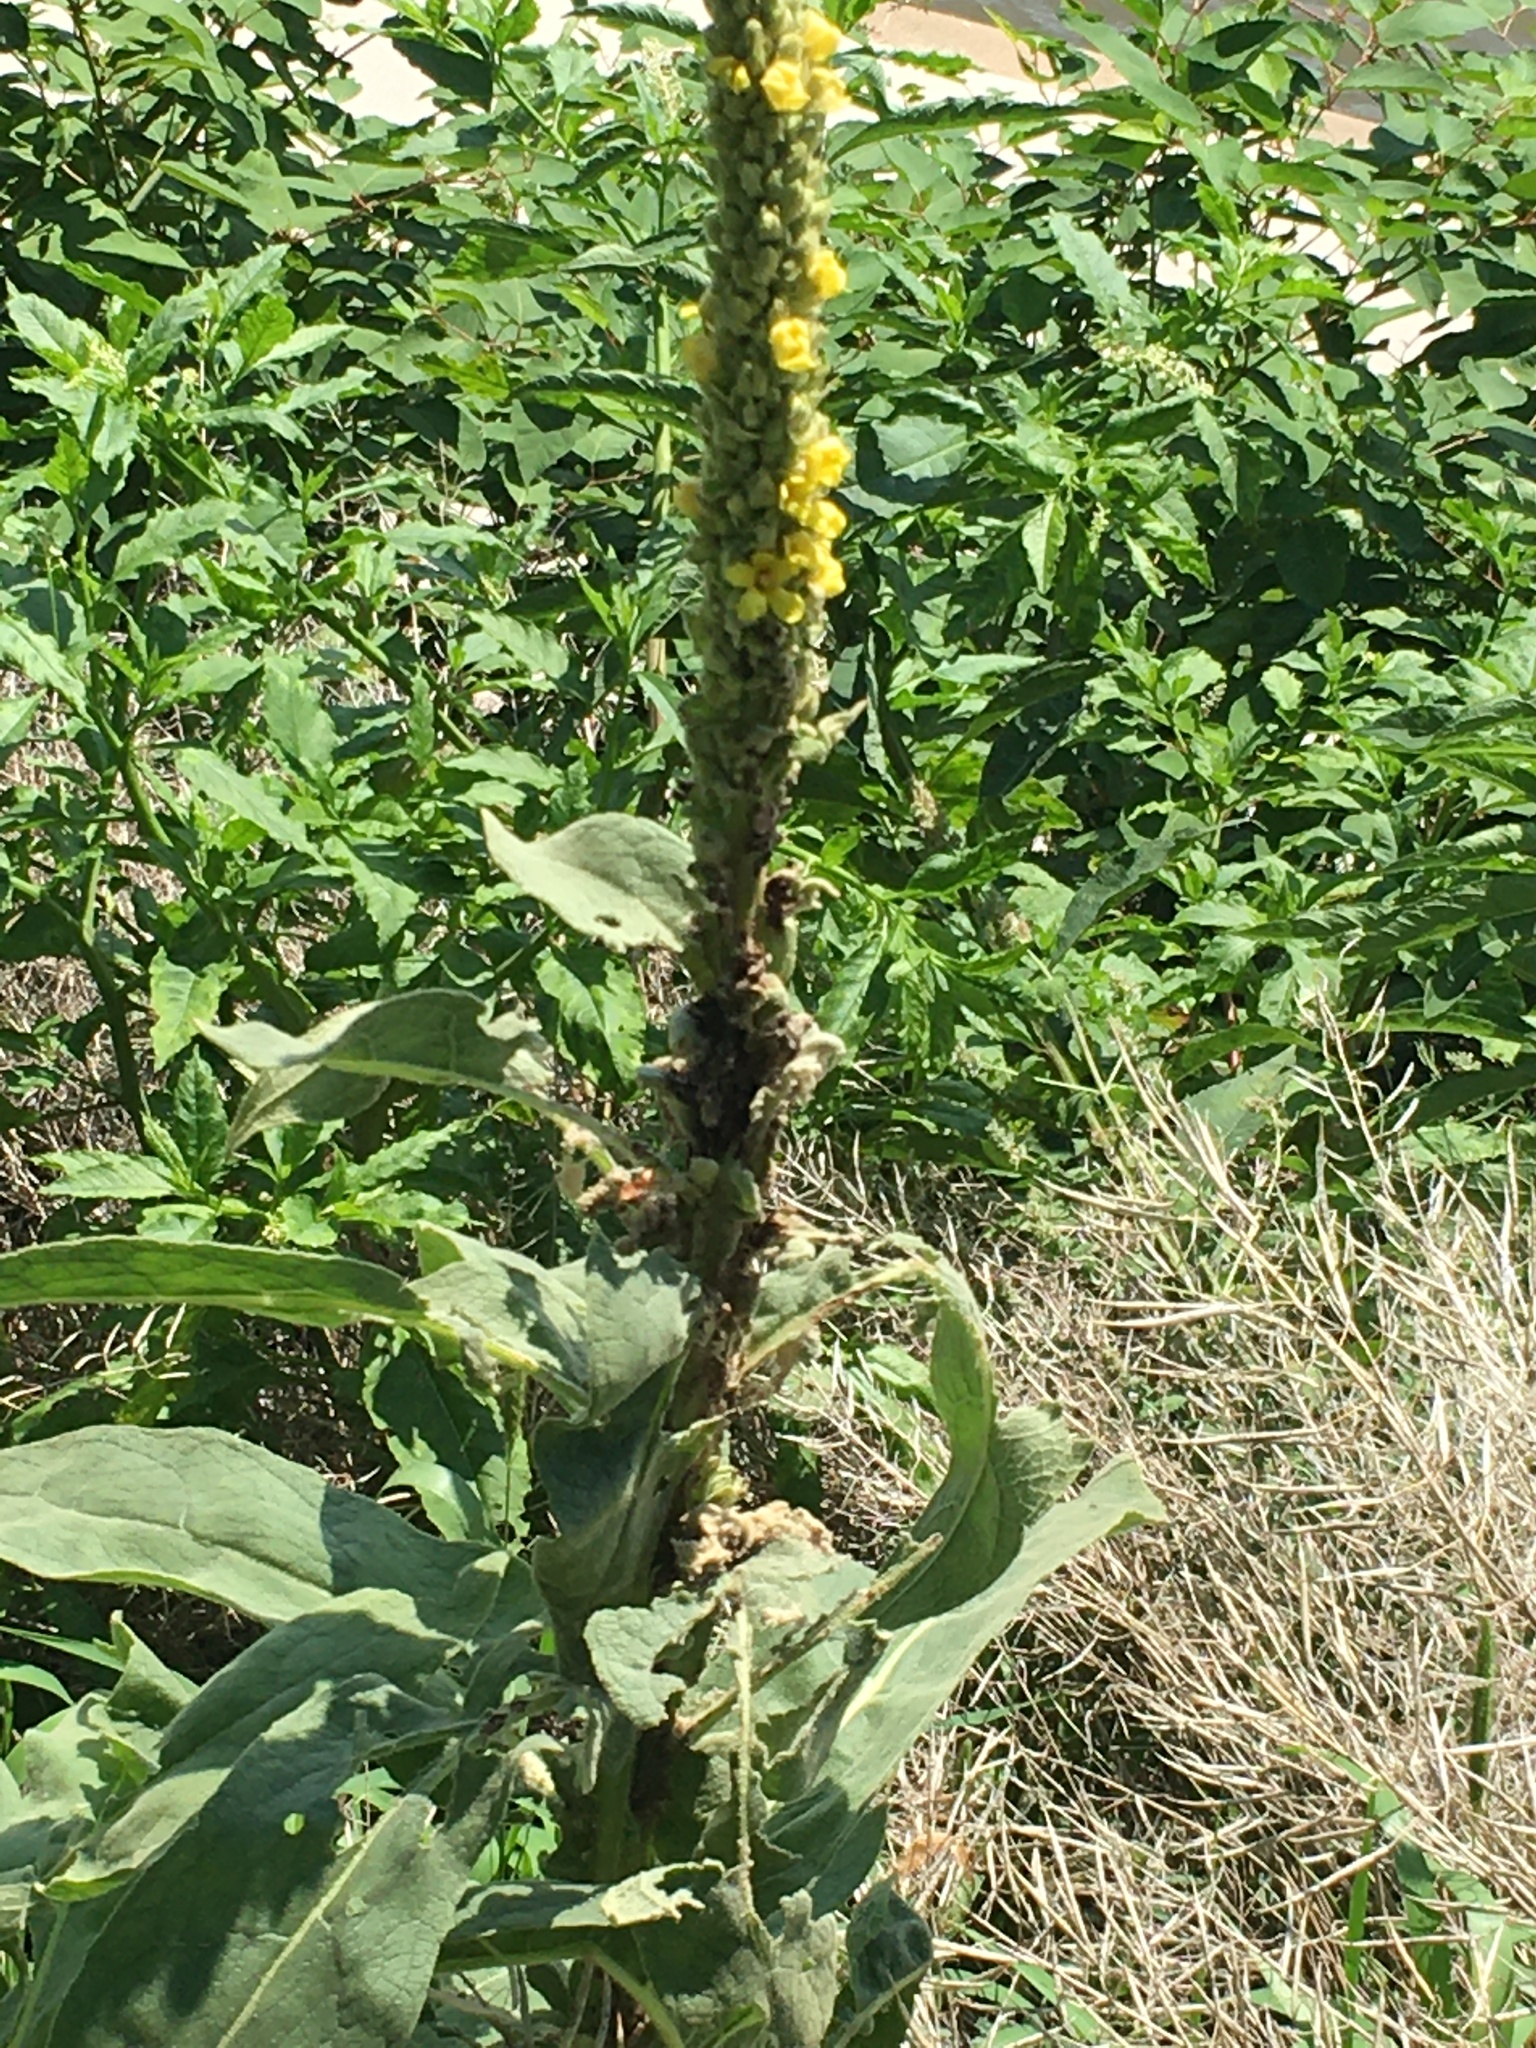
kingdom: Plantae
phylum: Tracheophyta
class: Magnoliopsida
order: Lamiales
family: Scrophulariaceae
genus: Verbascum
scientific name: Verbascum thapsus
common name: Common mullein
